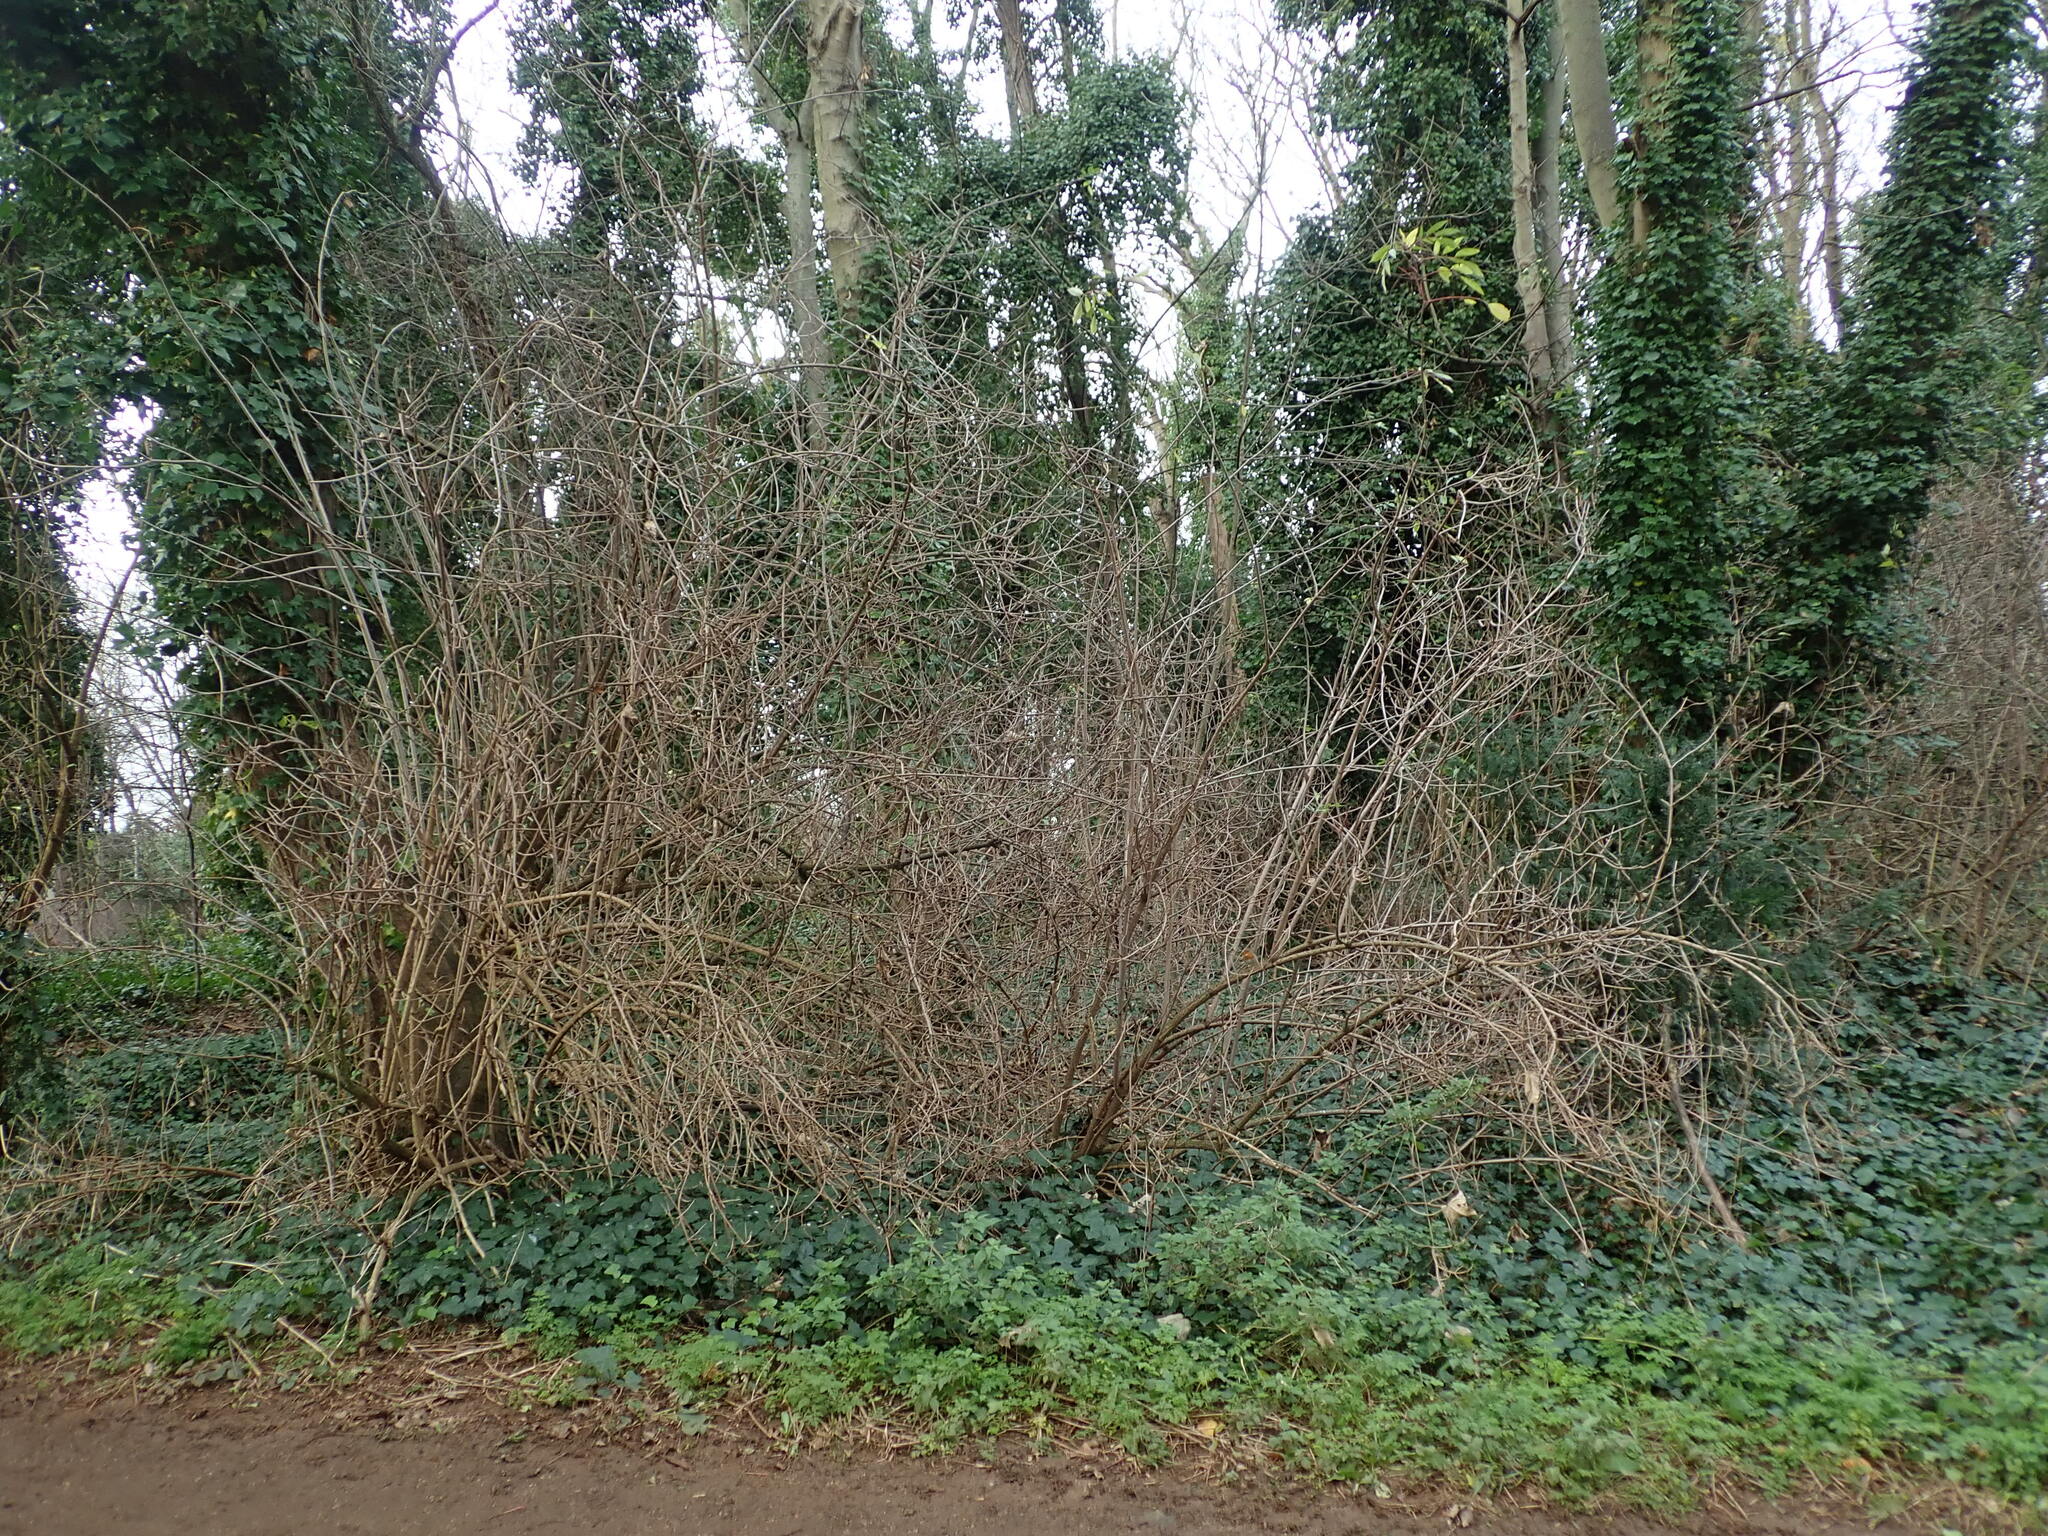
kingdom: Plantae
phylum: Tracheophyta
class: Magnoliopsida
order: Dipsacales
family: Viburnaceae
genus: Sambucus
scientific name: Sambucus nigra
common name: Elder
